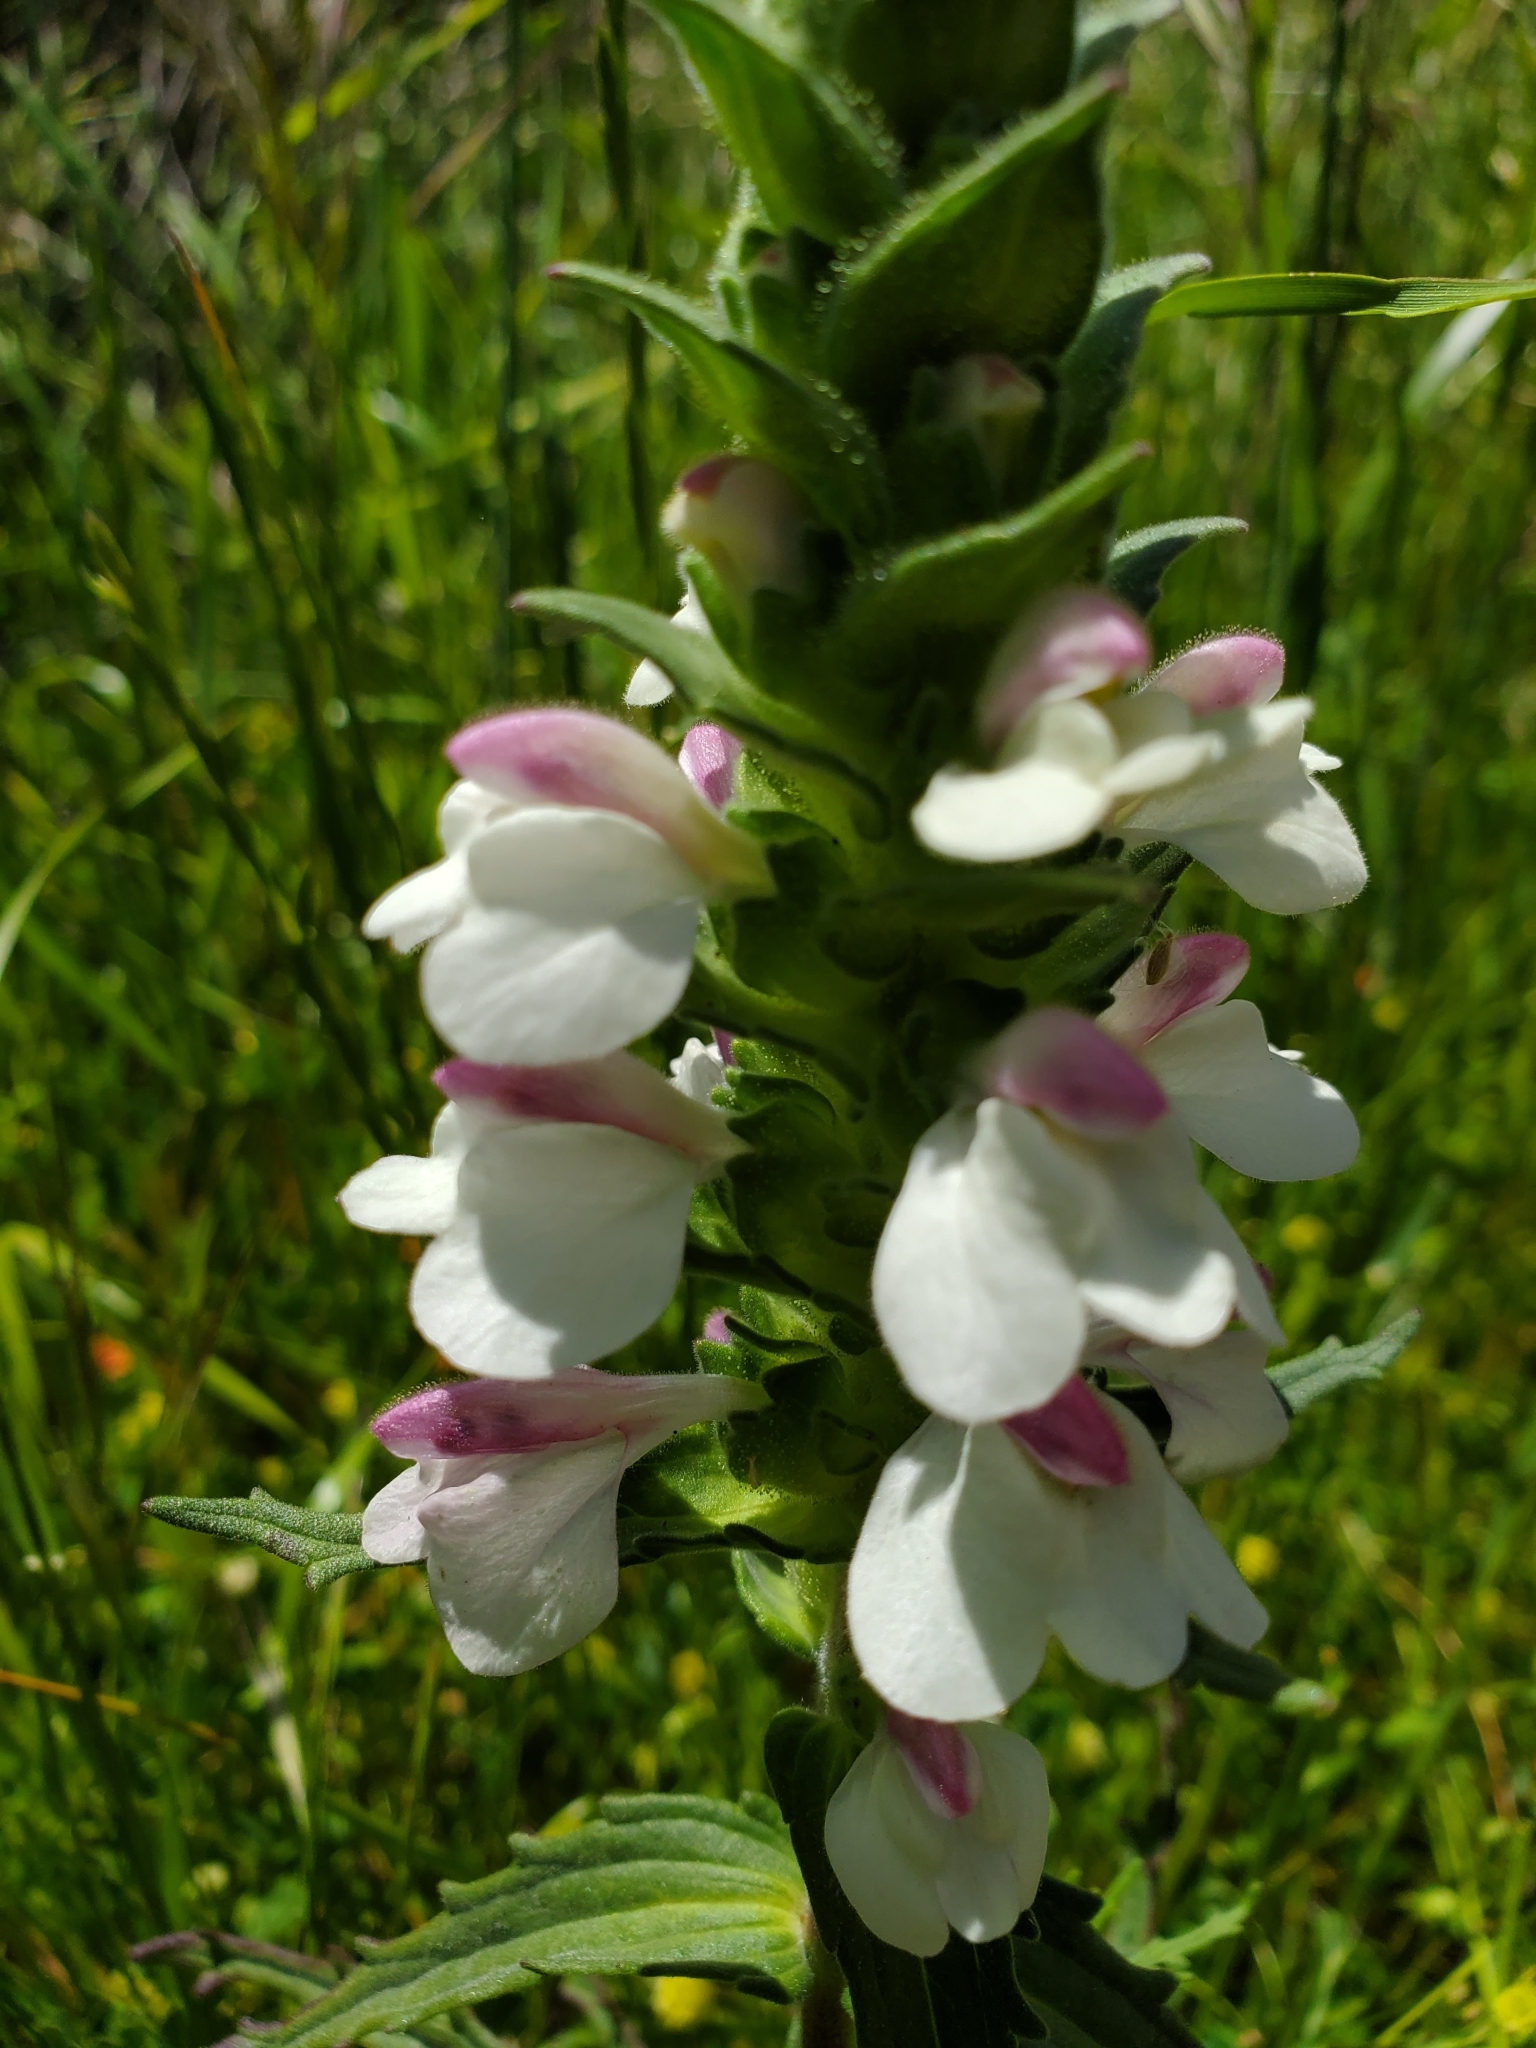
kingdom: Plantae
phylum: Tracheophyta
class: Magnoliopsida
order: Lamiales
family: Orobanchaceae
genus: Bellardia
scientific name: Bellardia trixago
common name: Mediterranean lineseed
